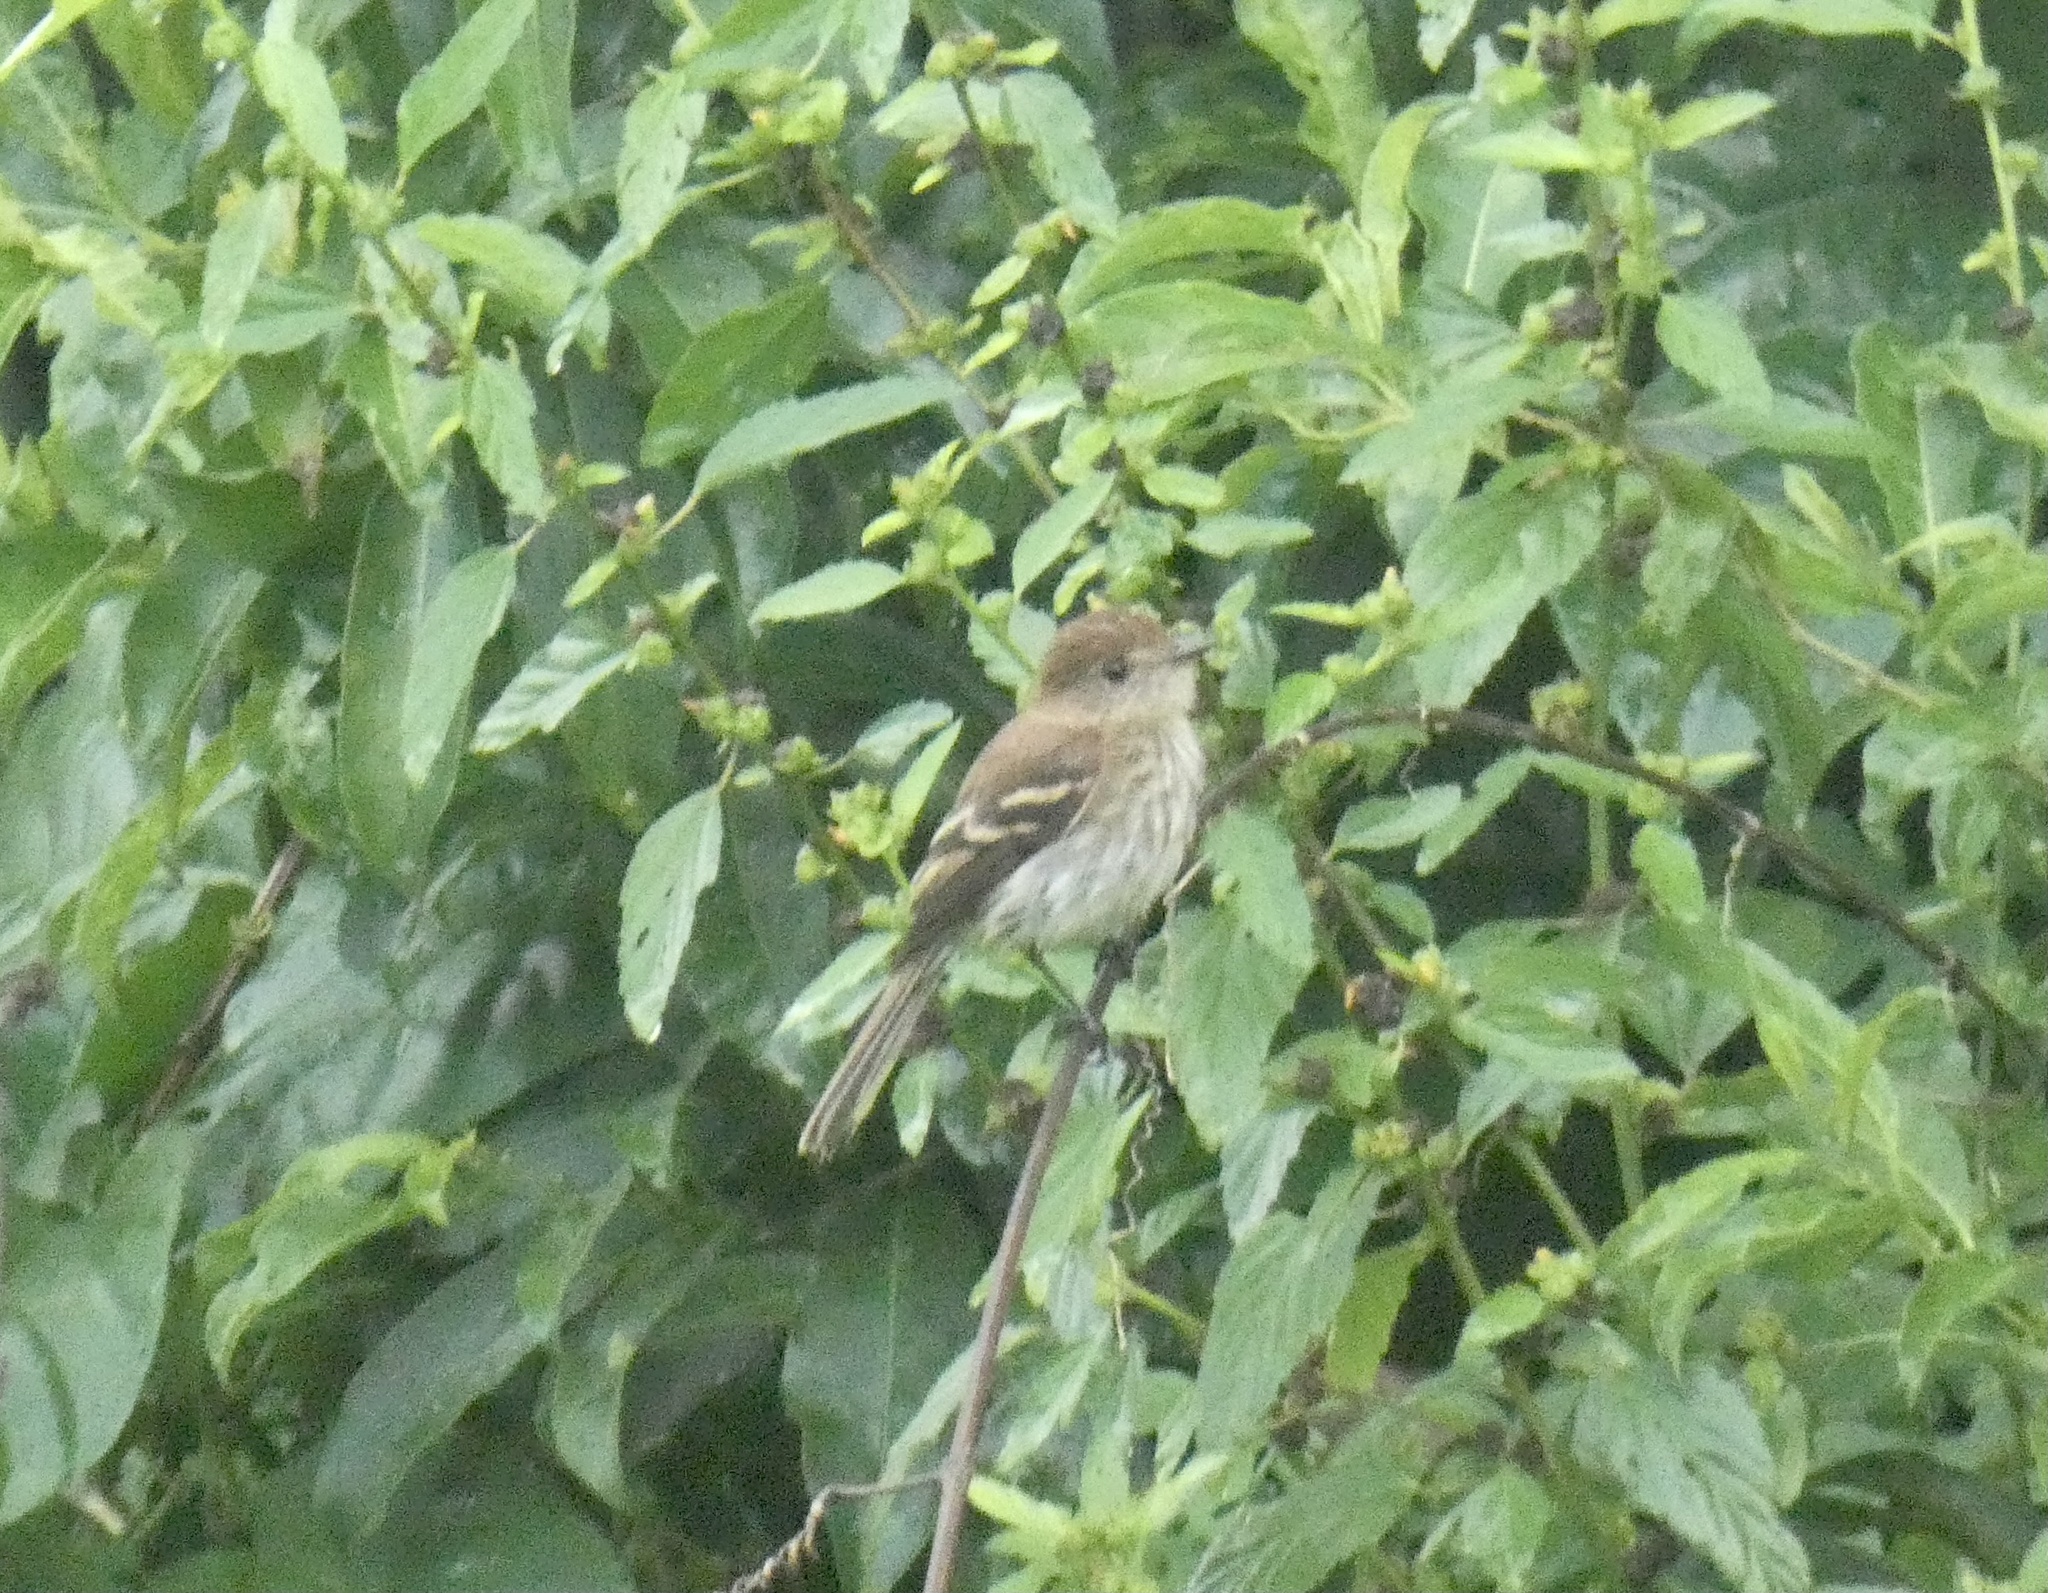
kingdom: Animalia
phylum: Chordata
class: Aves
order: Passeriformes
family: Tyrannidae
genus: Myiophobus
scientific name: Myiophobus fasciatus
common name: Bran-colored flycatcher
